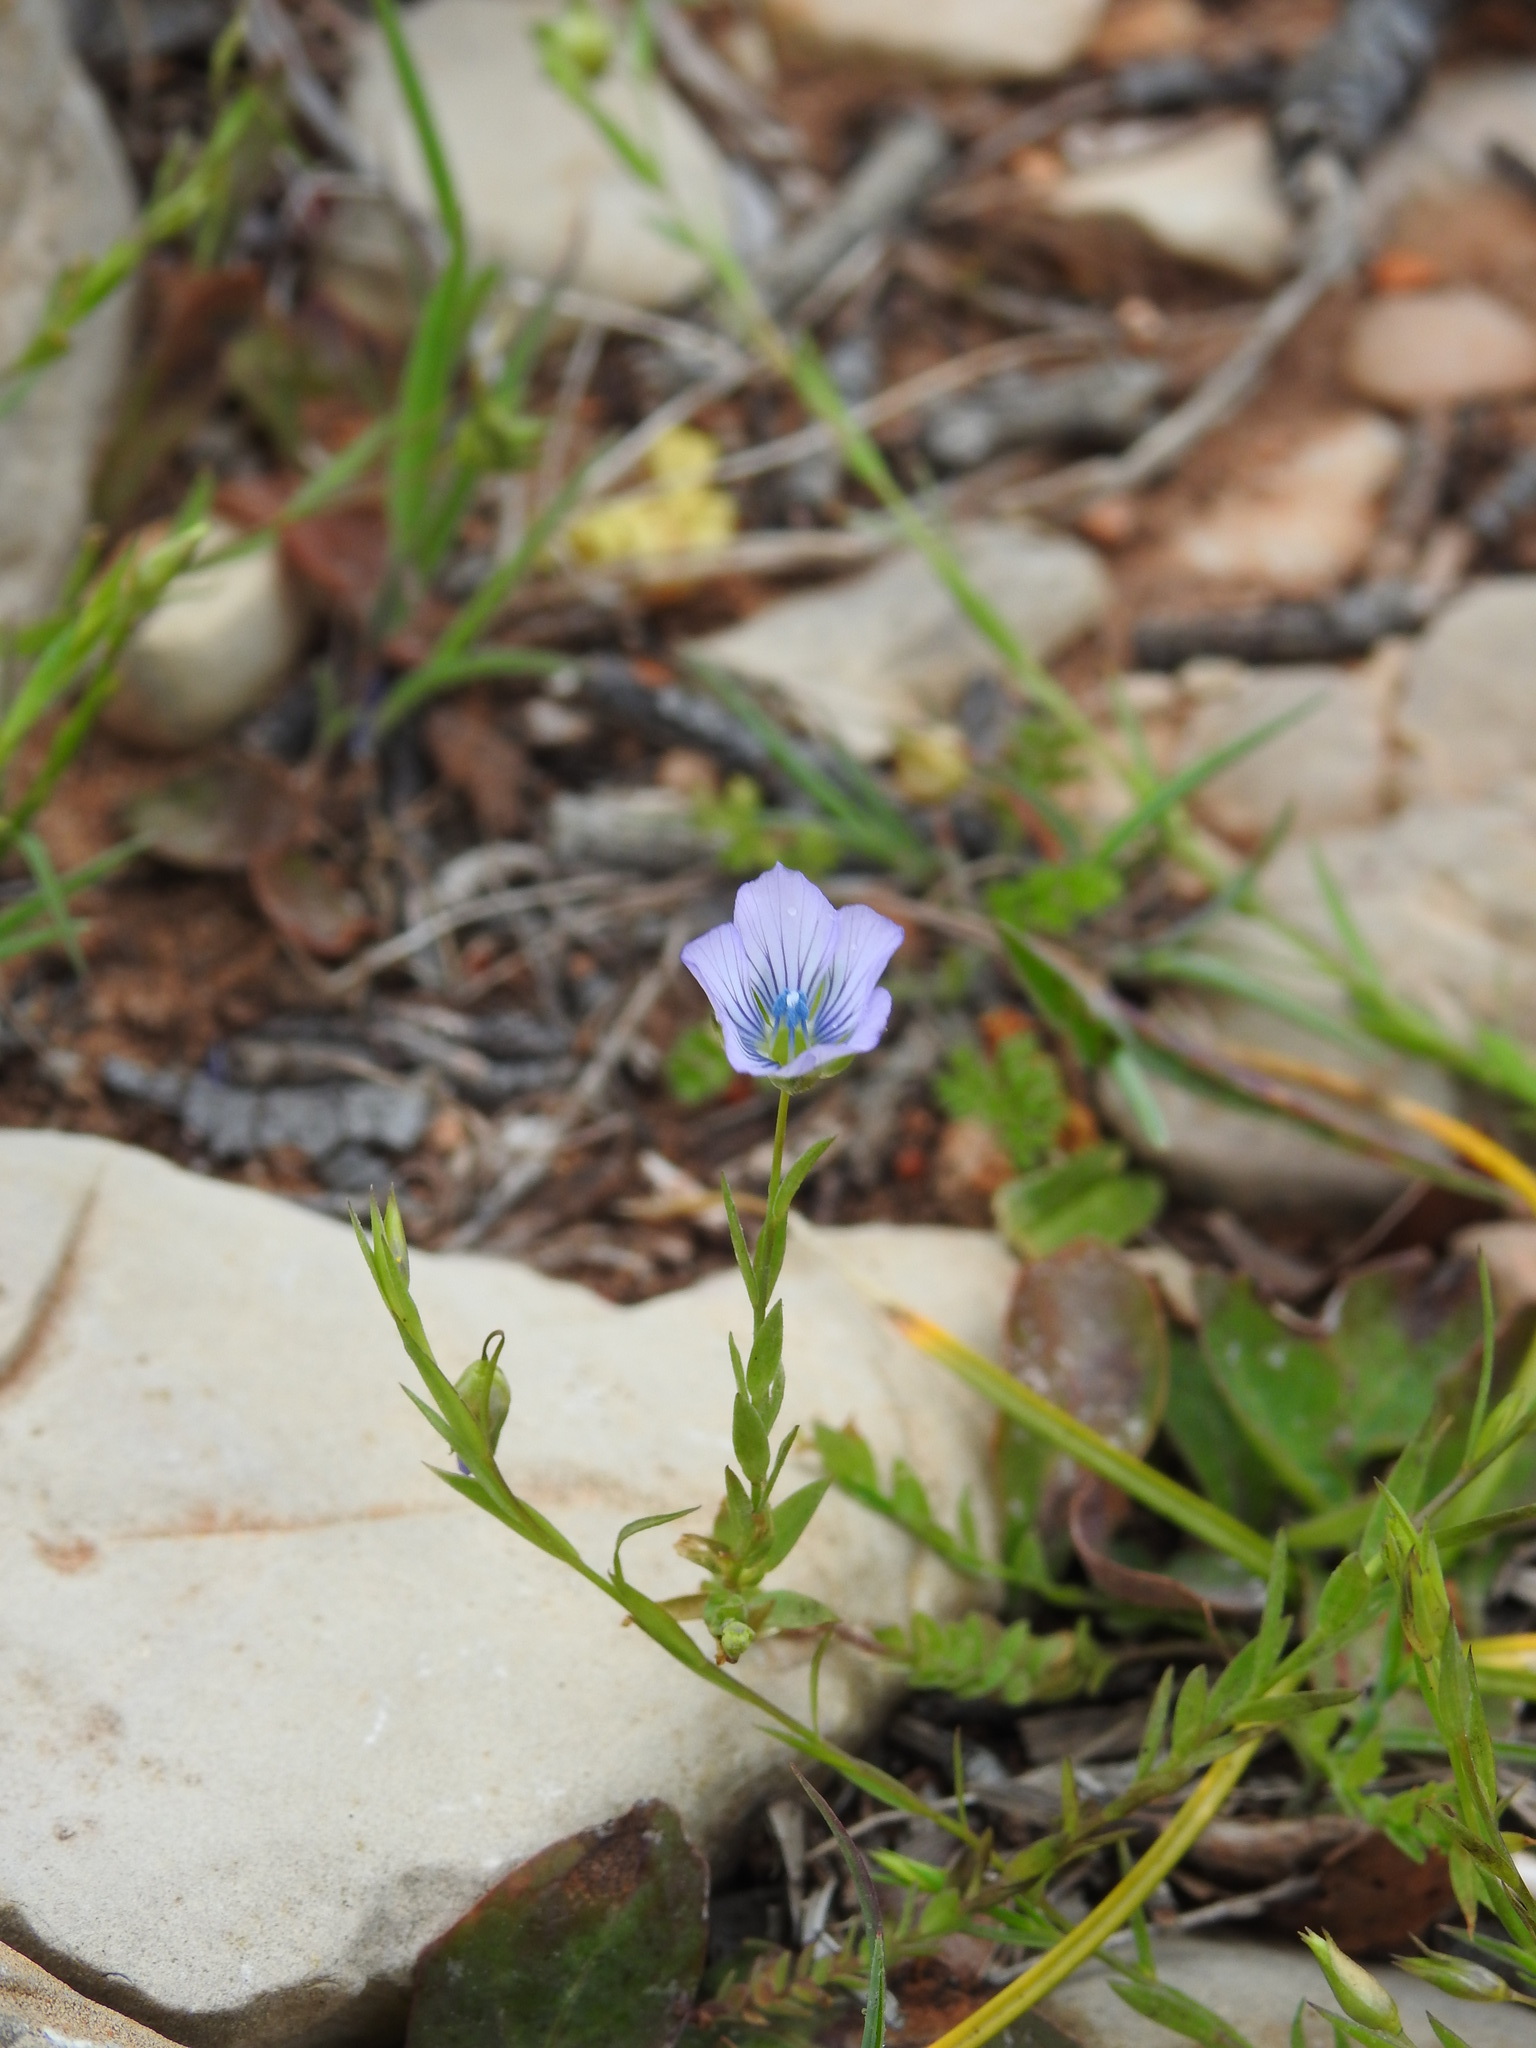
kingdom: Plantae
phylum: Tracheophyta
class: Magnoliopsida
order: Malpighiales
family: Linaceae
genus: Linum
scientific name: Linum bienne
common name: Pale flax
